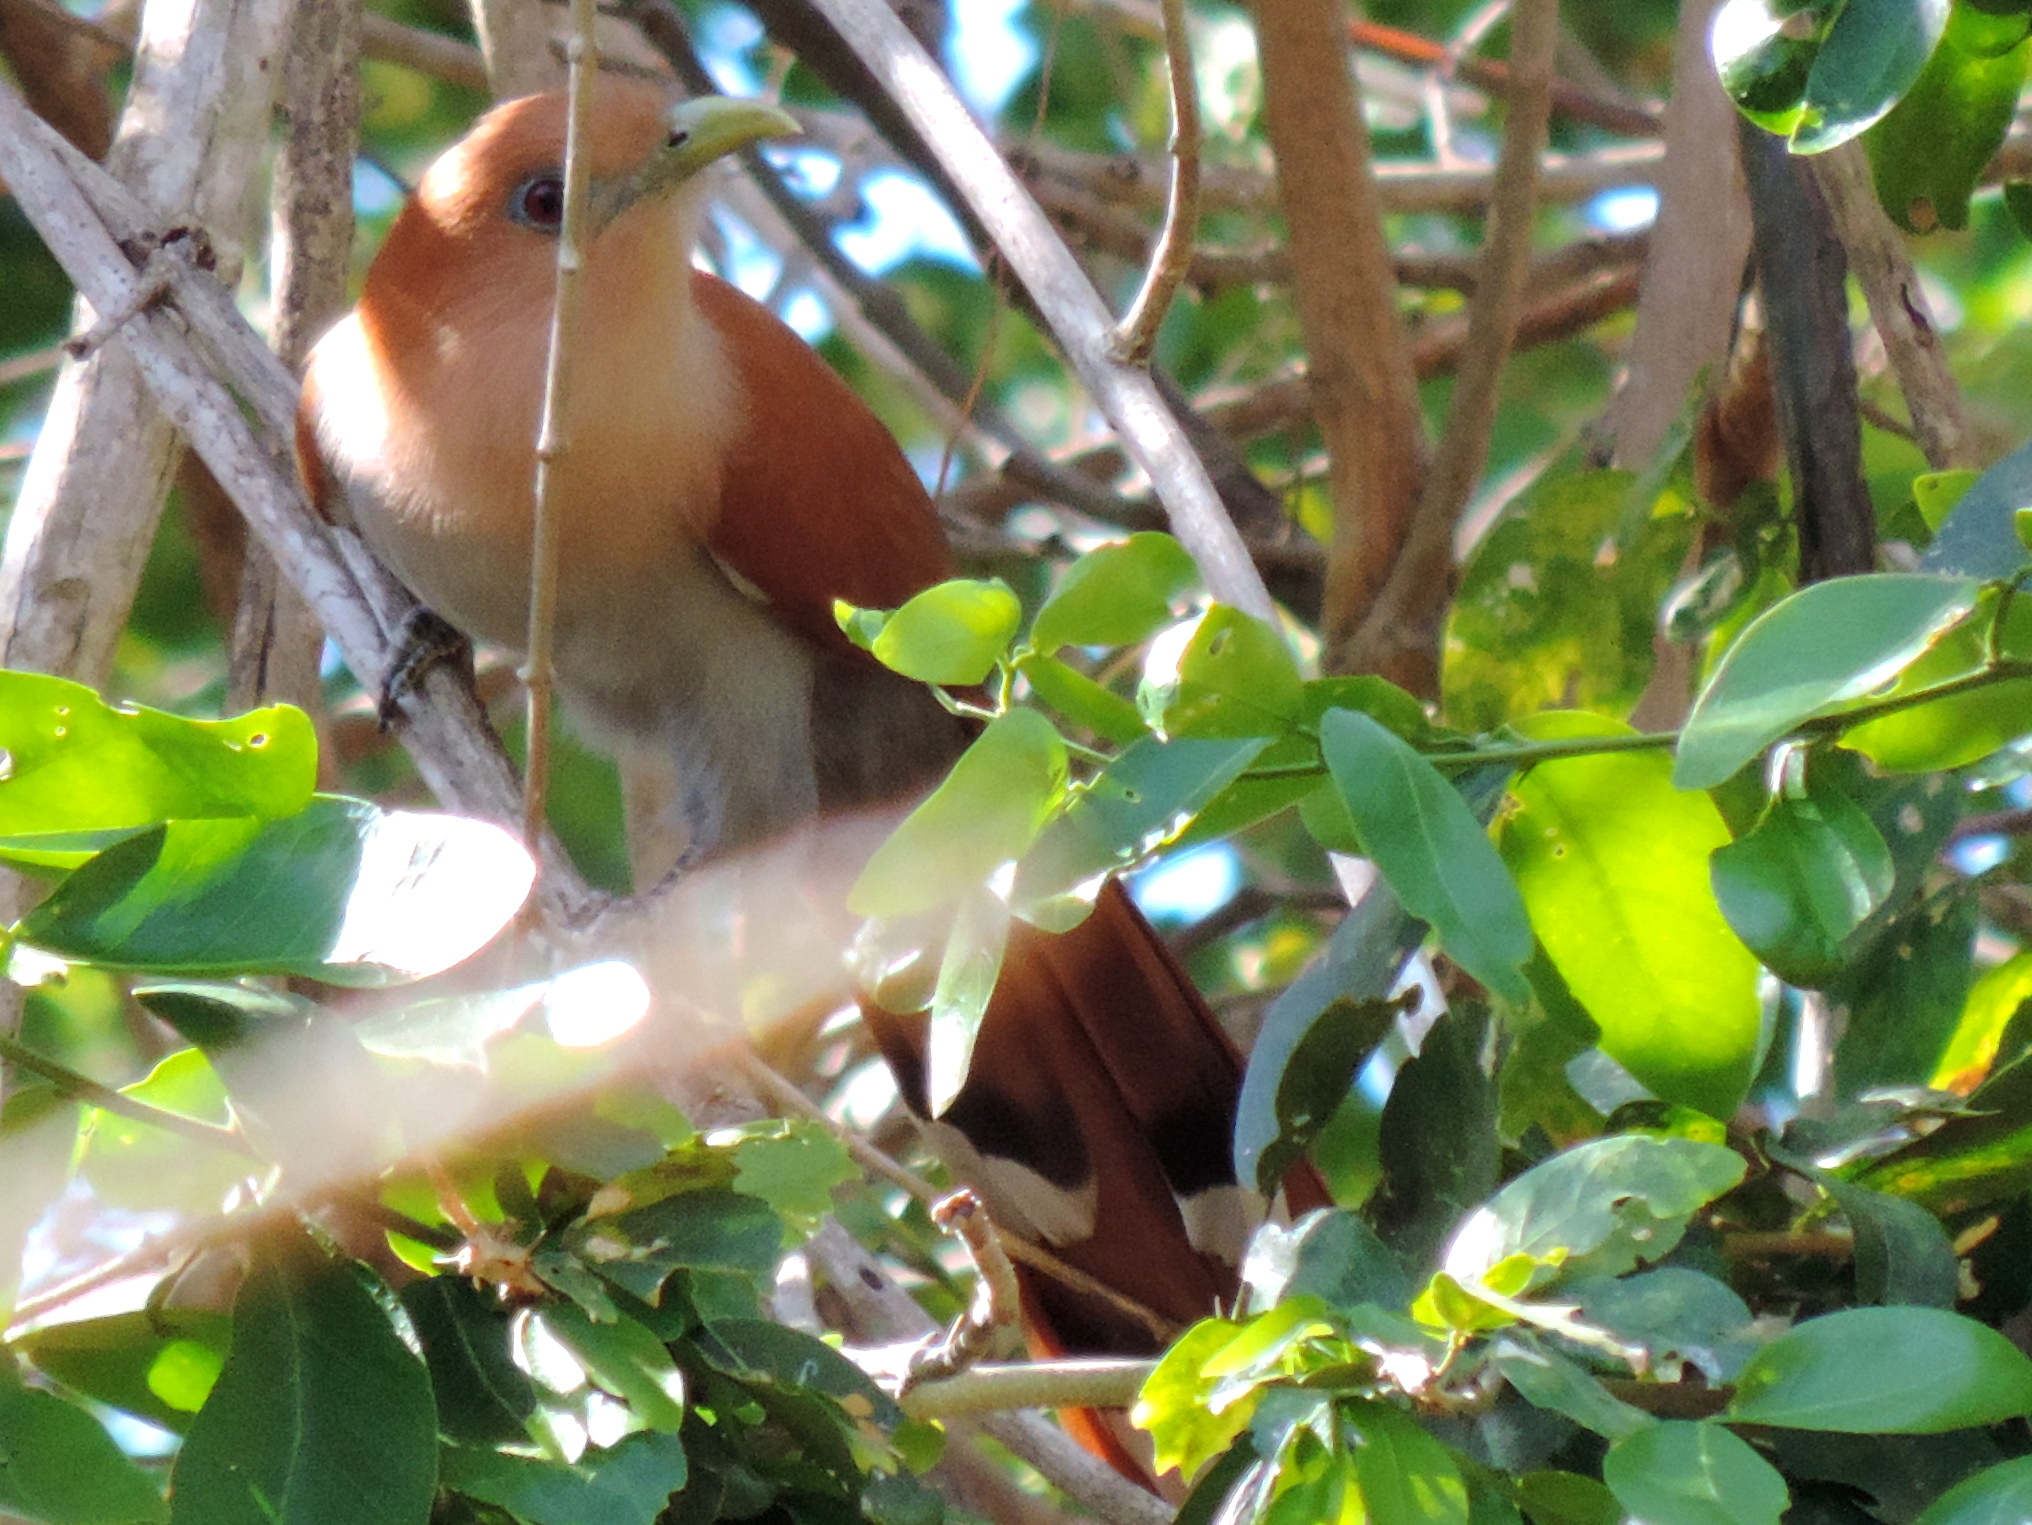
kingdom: Animalia
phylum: Chordata
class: Aves
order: Cuculiformes
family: Cuculidae
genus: Piaya
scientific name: Piaya cayana
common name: Squirrel cuckoo
